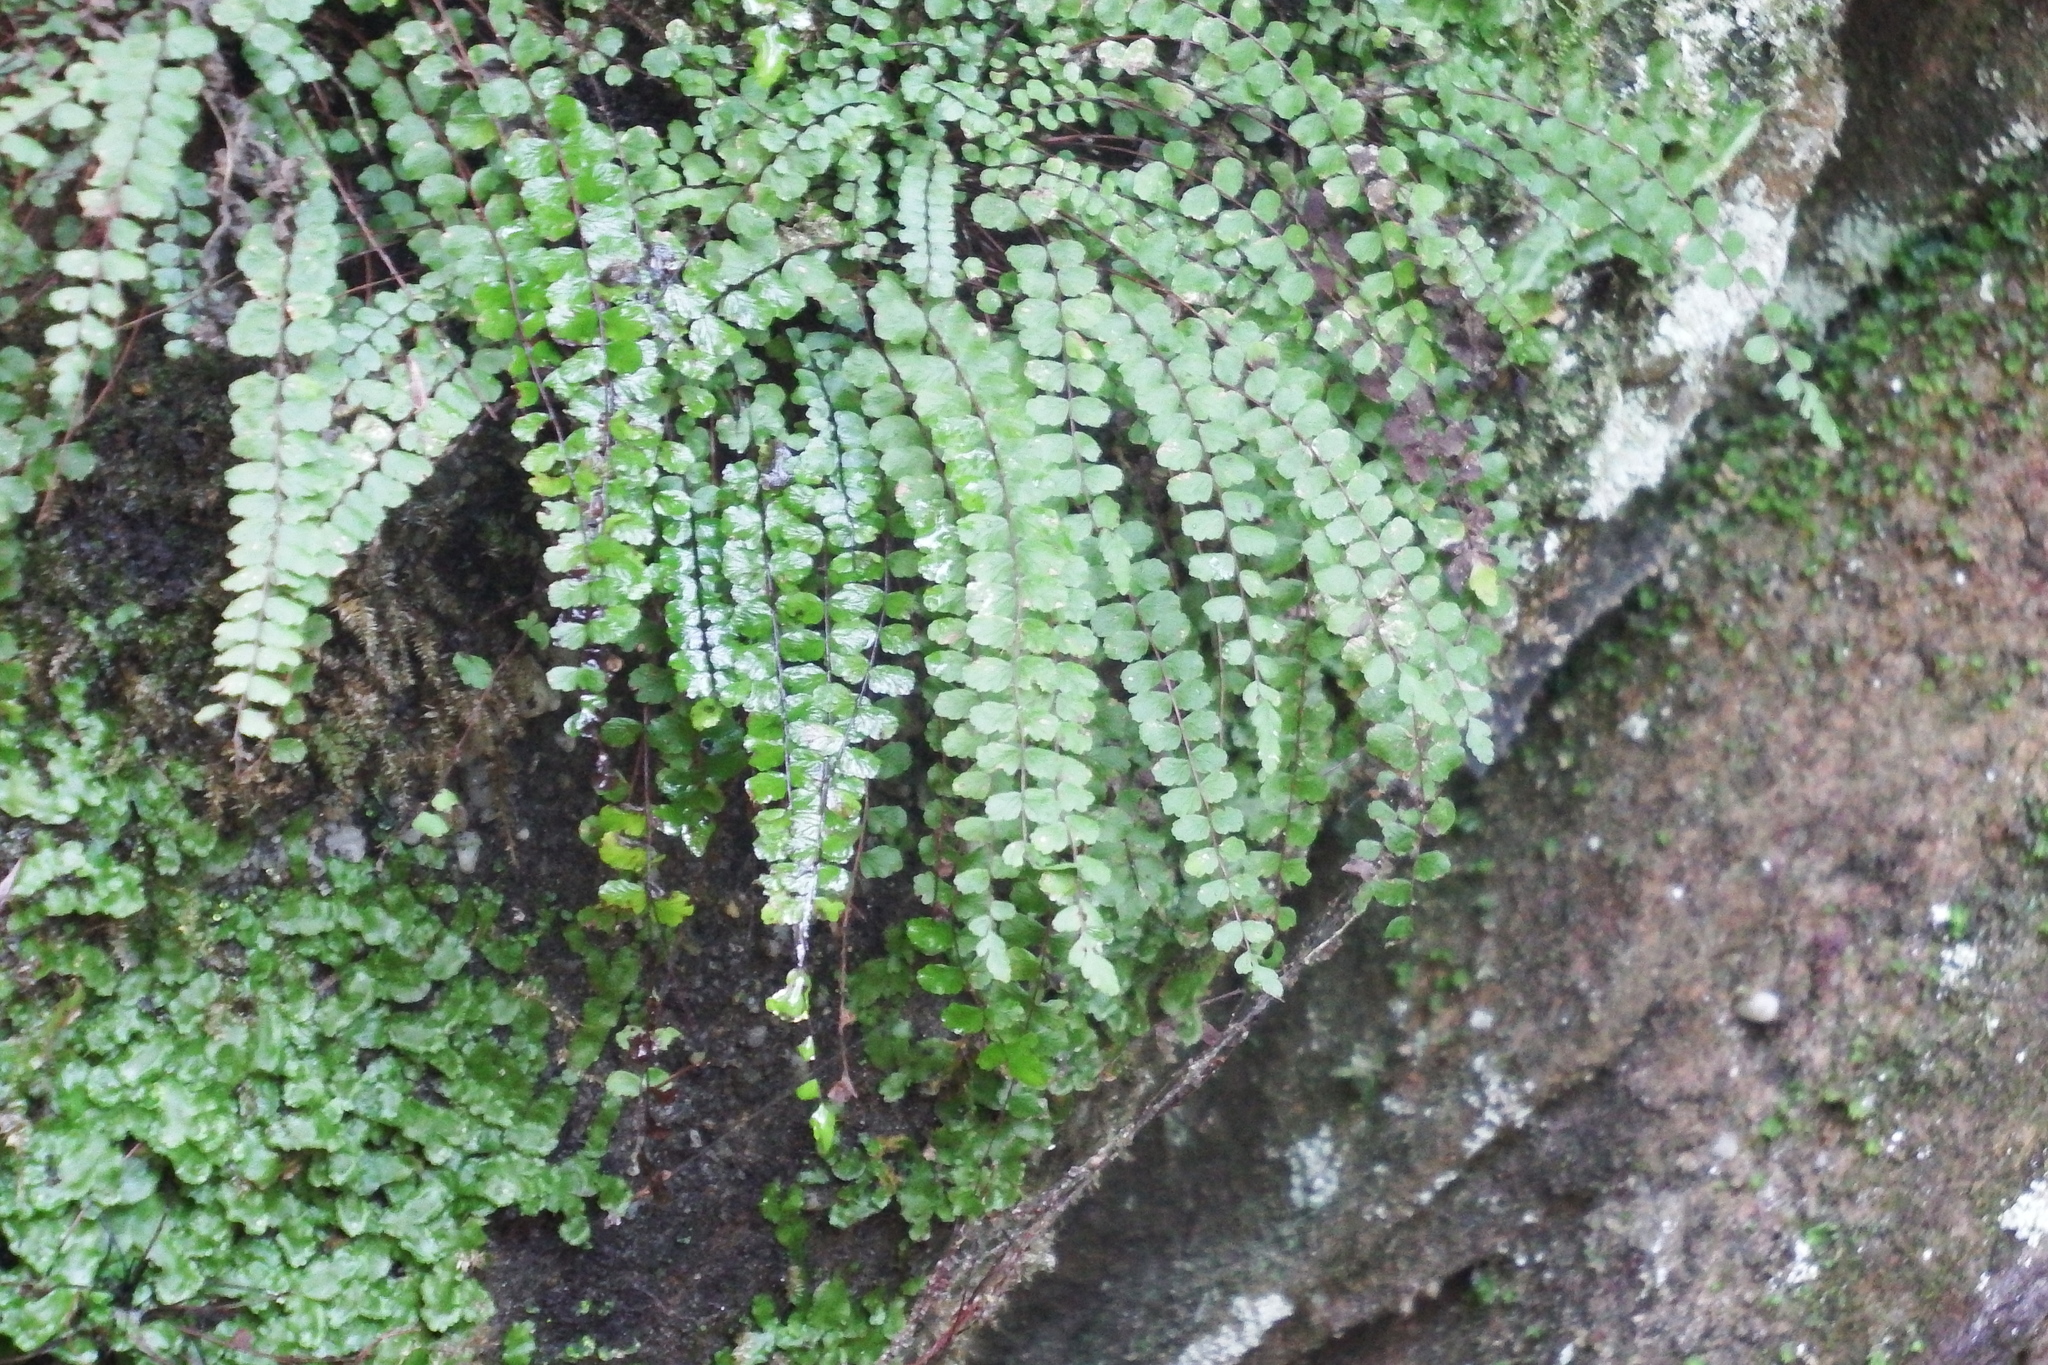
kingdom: Plantae
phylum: Tracheophyta
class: Polypodiopsida
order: Polypodiales
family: Aspleniaceae
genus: Asplenium
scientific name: Asplenium trichomanes
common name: Maidenhair spleenwort
